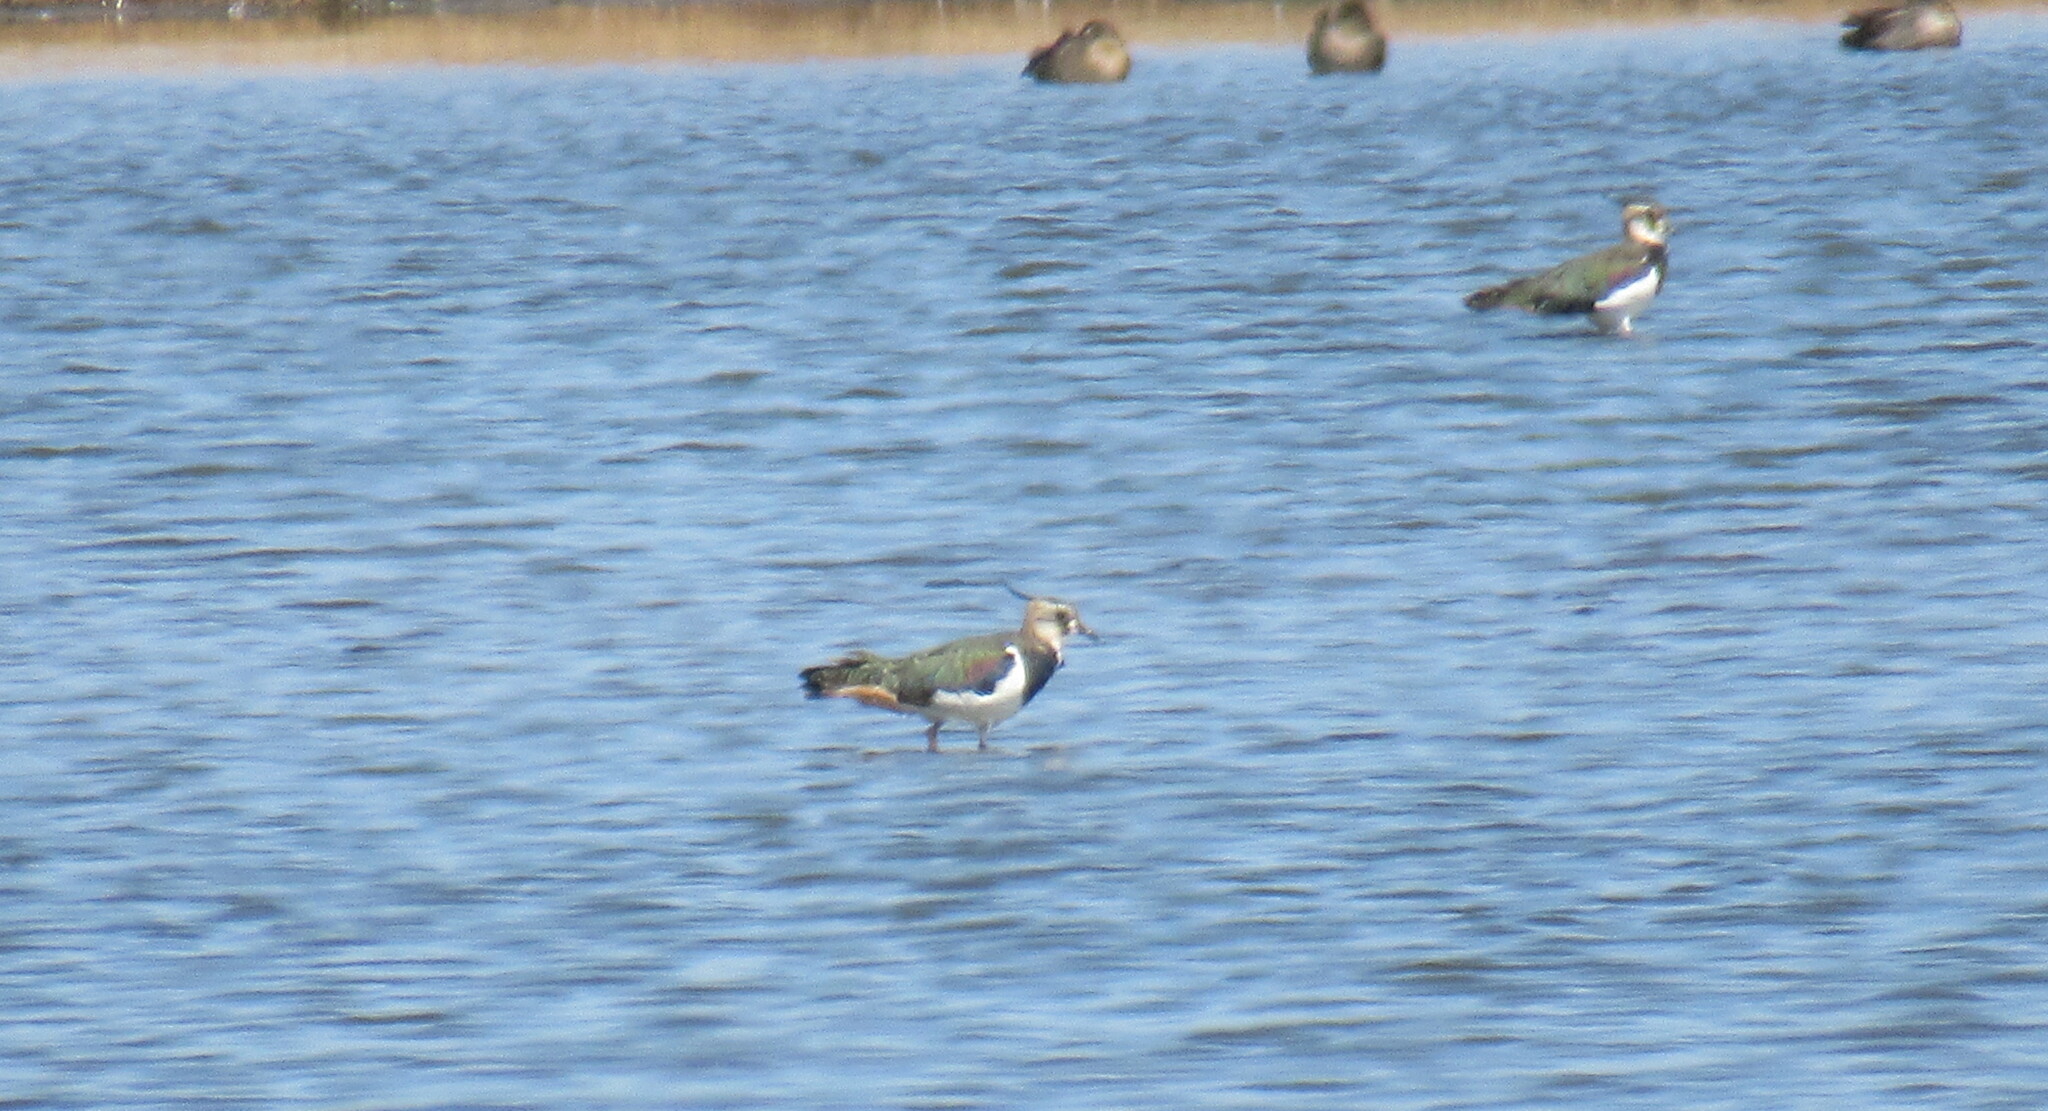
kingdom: Animalia
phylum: Chordata
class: Aves
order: Charadriiformes
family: Charadriidae
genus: Vanellus
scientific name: Vanellus vanellus
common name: Northern lapwing
